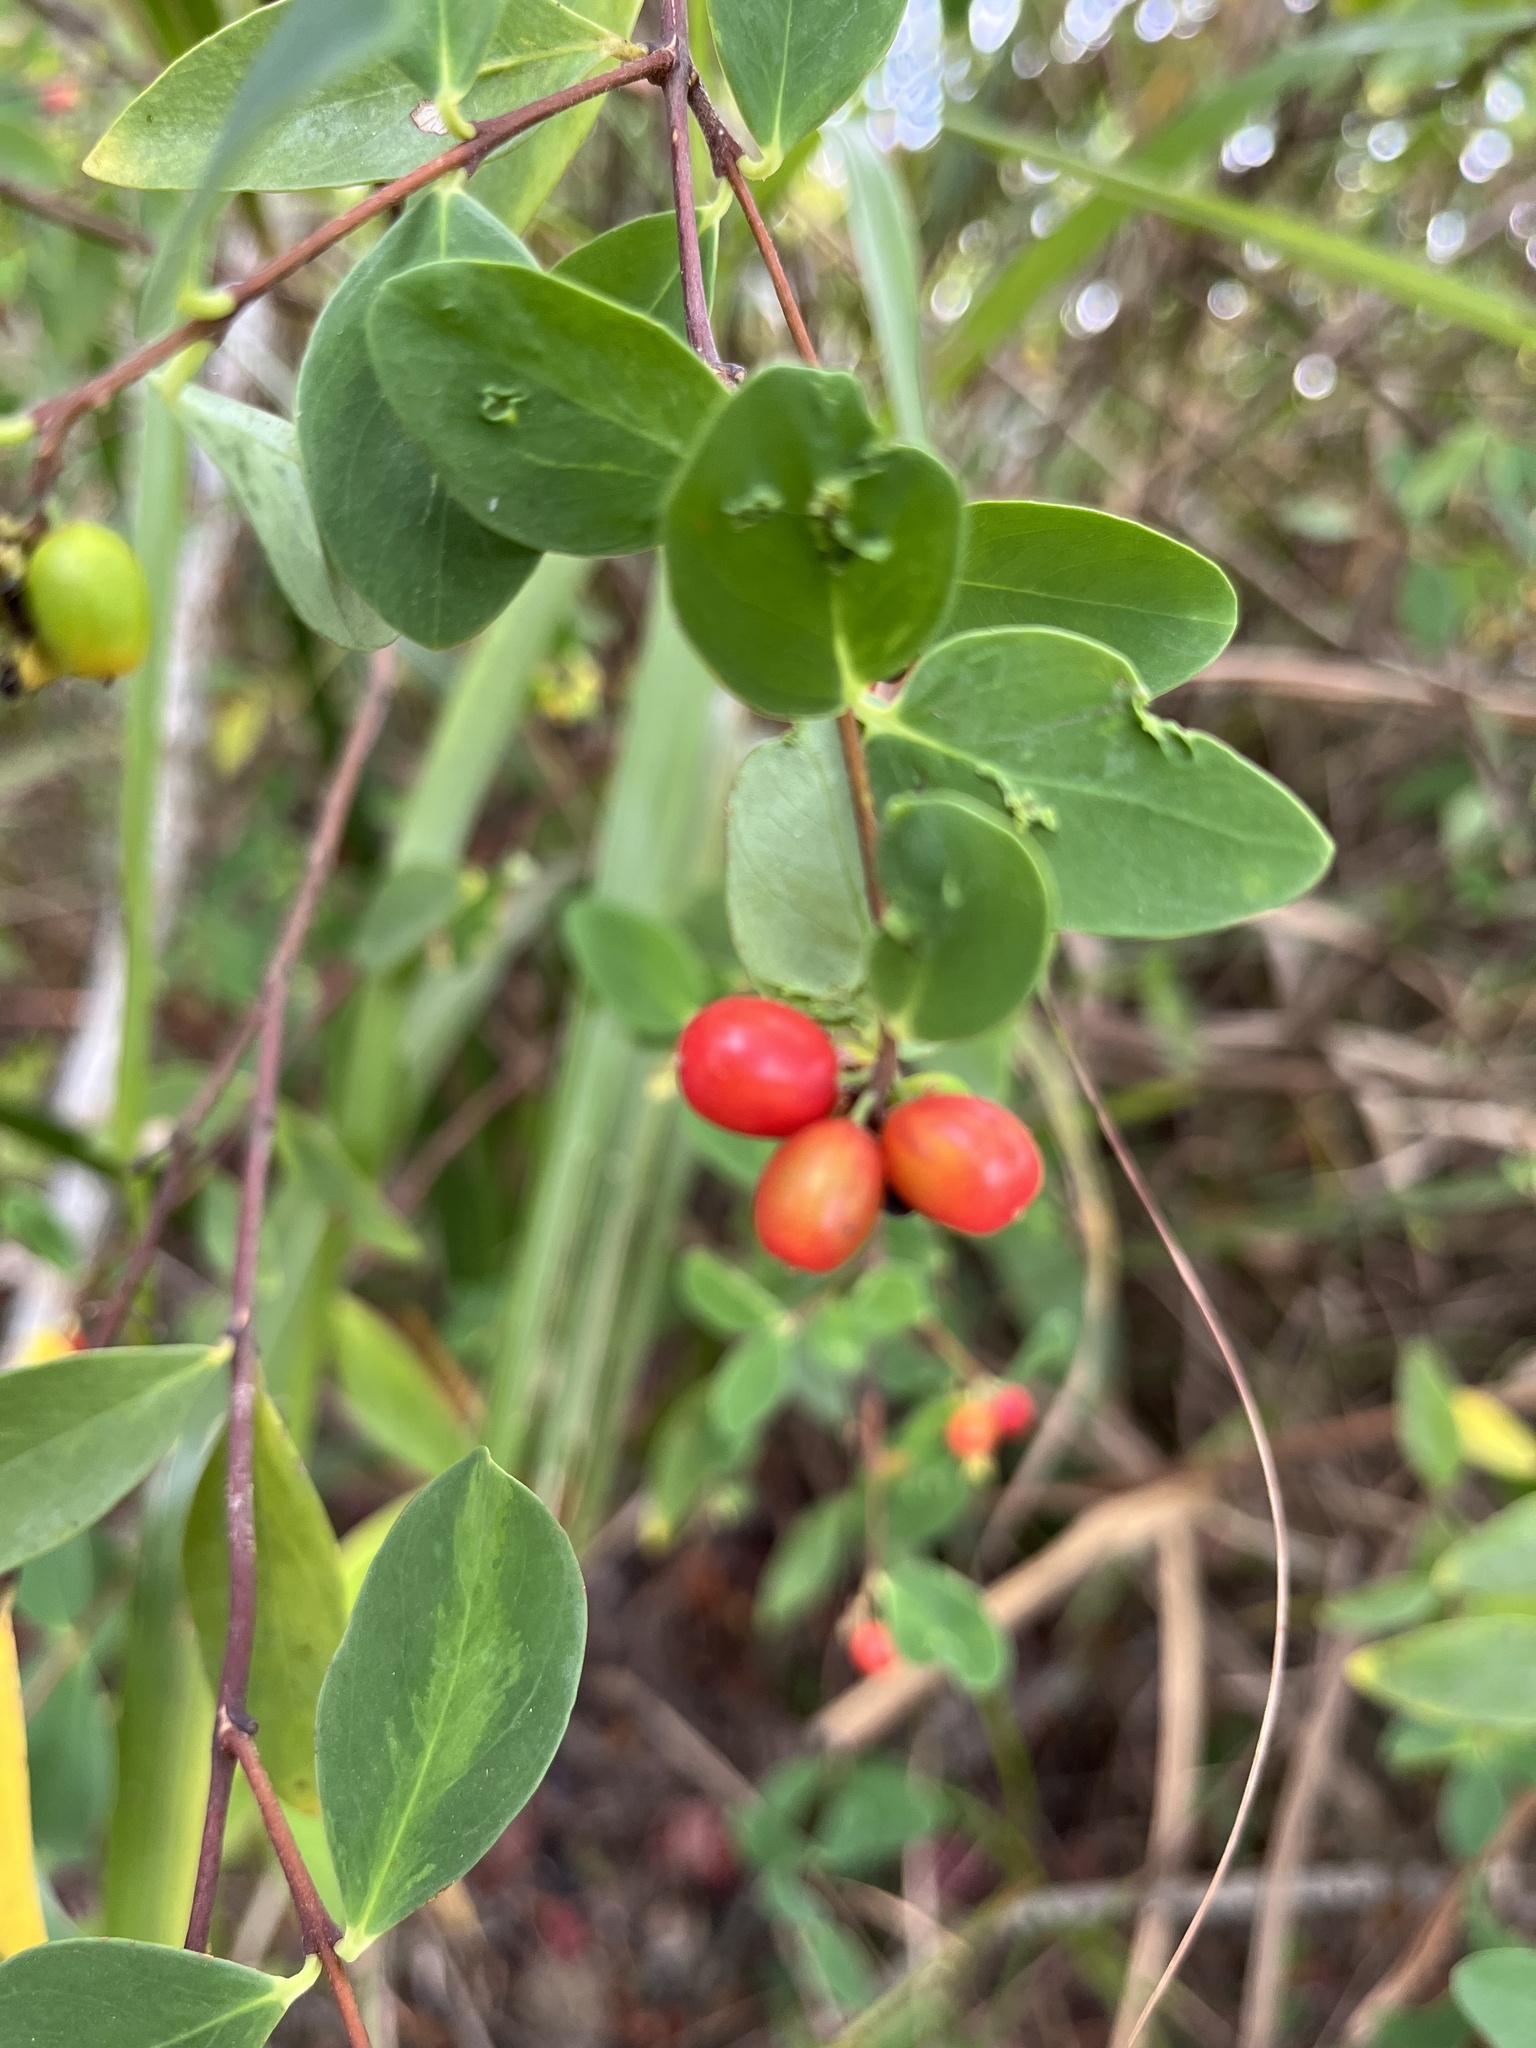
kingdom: Plantae
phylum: Tracheophyta
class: Magnoliopsida
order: Malvales
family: Thymelaeaceae
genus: Wikstroemia
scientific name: Wikstroemia indica
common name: Tiebush
